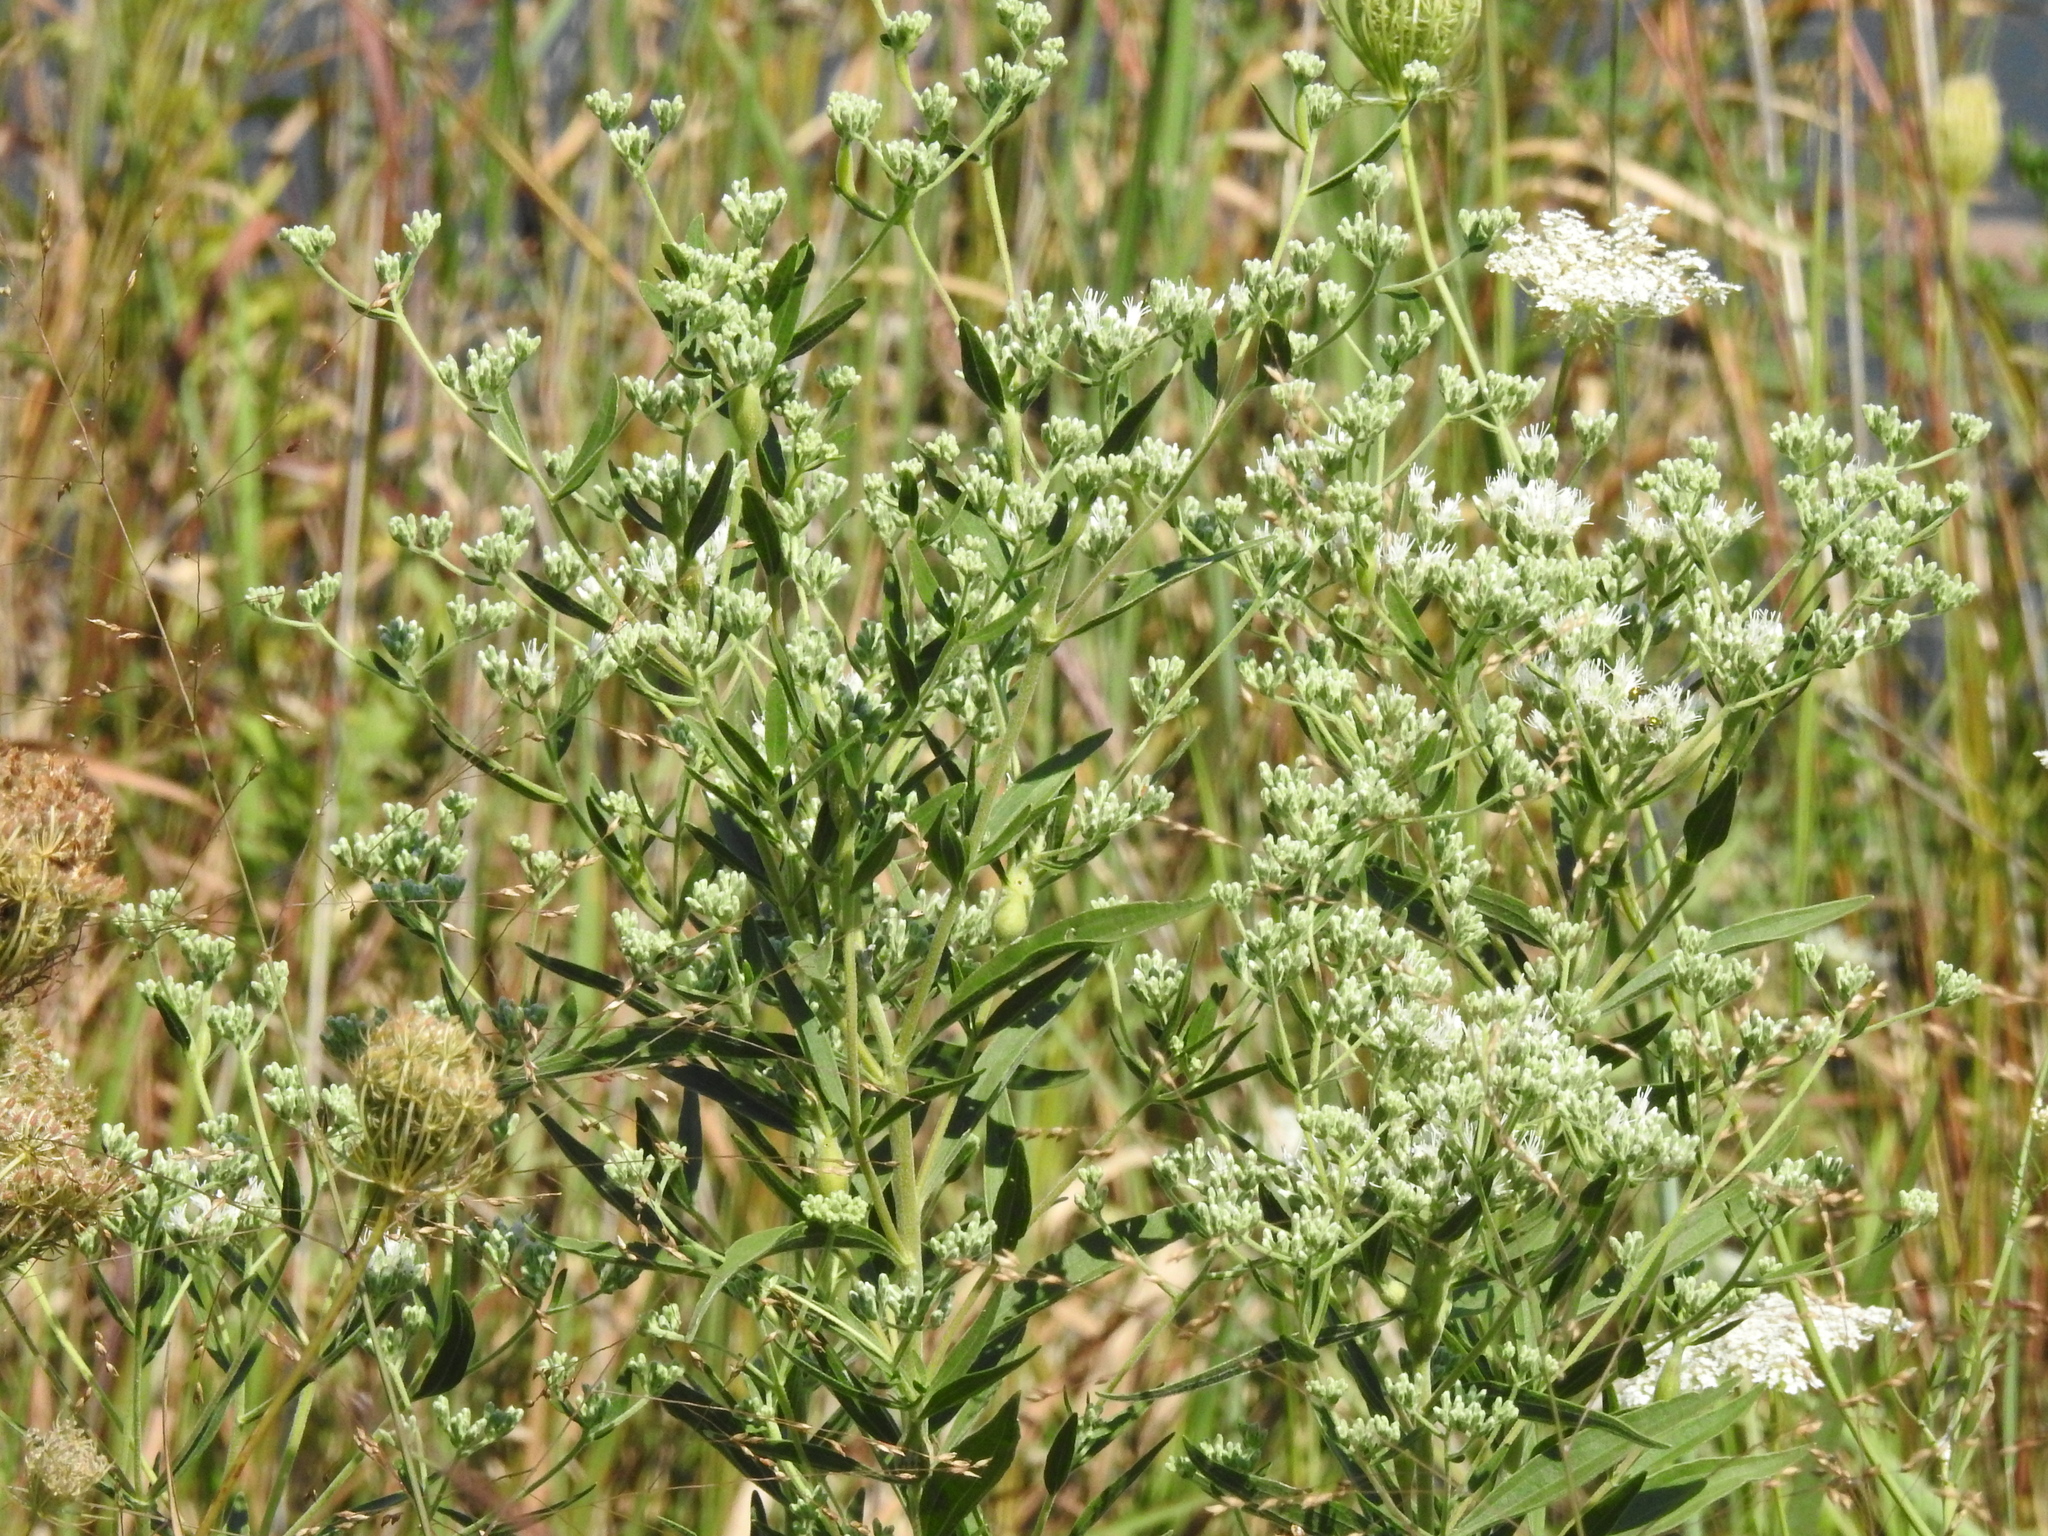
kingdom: Plantae
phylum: Tracheophyta
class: Magnoliopsida
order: Asterales
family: Asteraceae
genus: Eupatorium
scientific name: Eupatorium altissimum
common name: Tall thoroughwort
